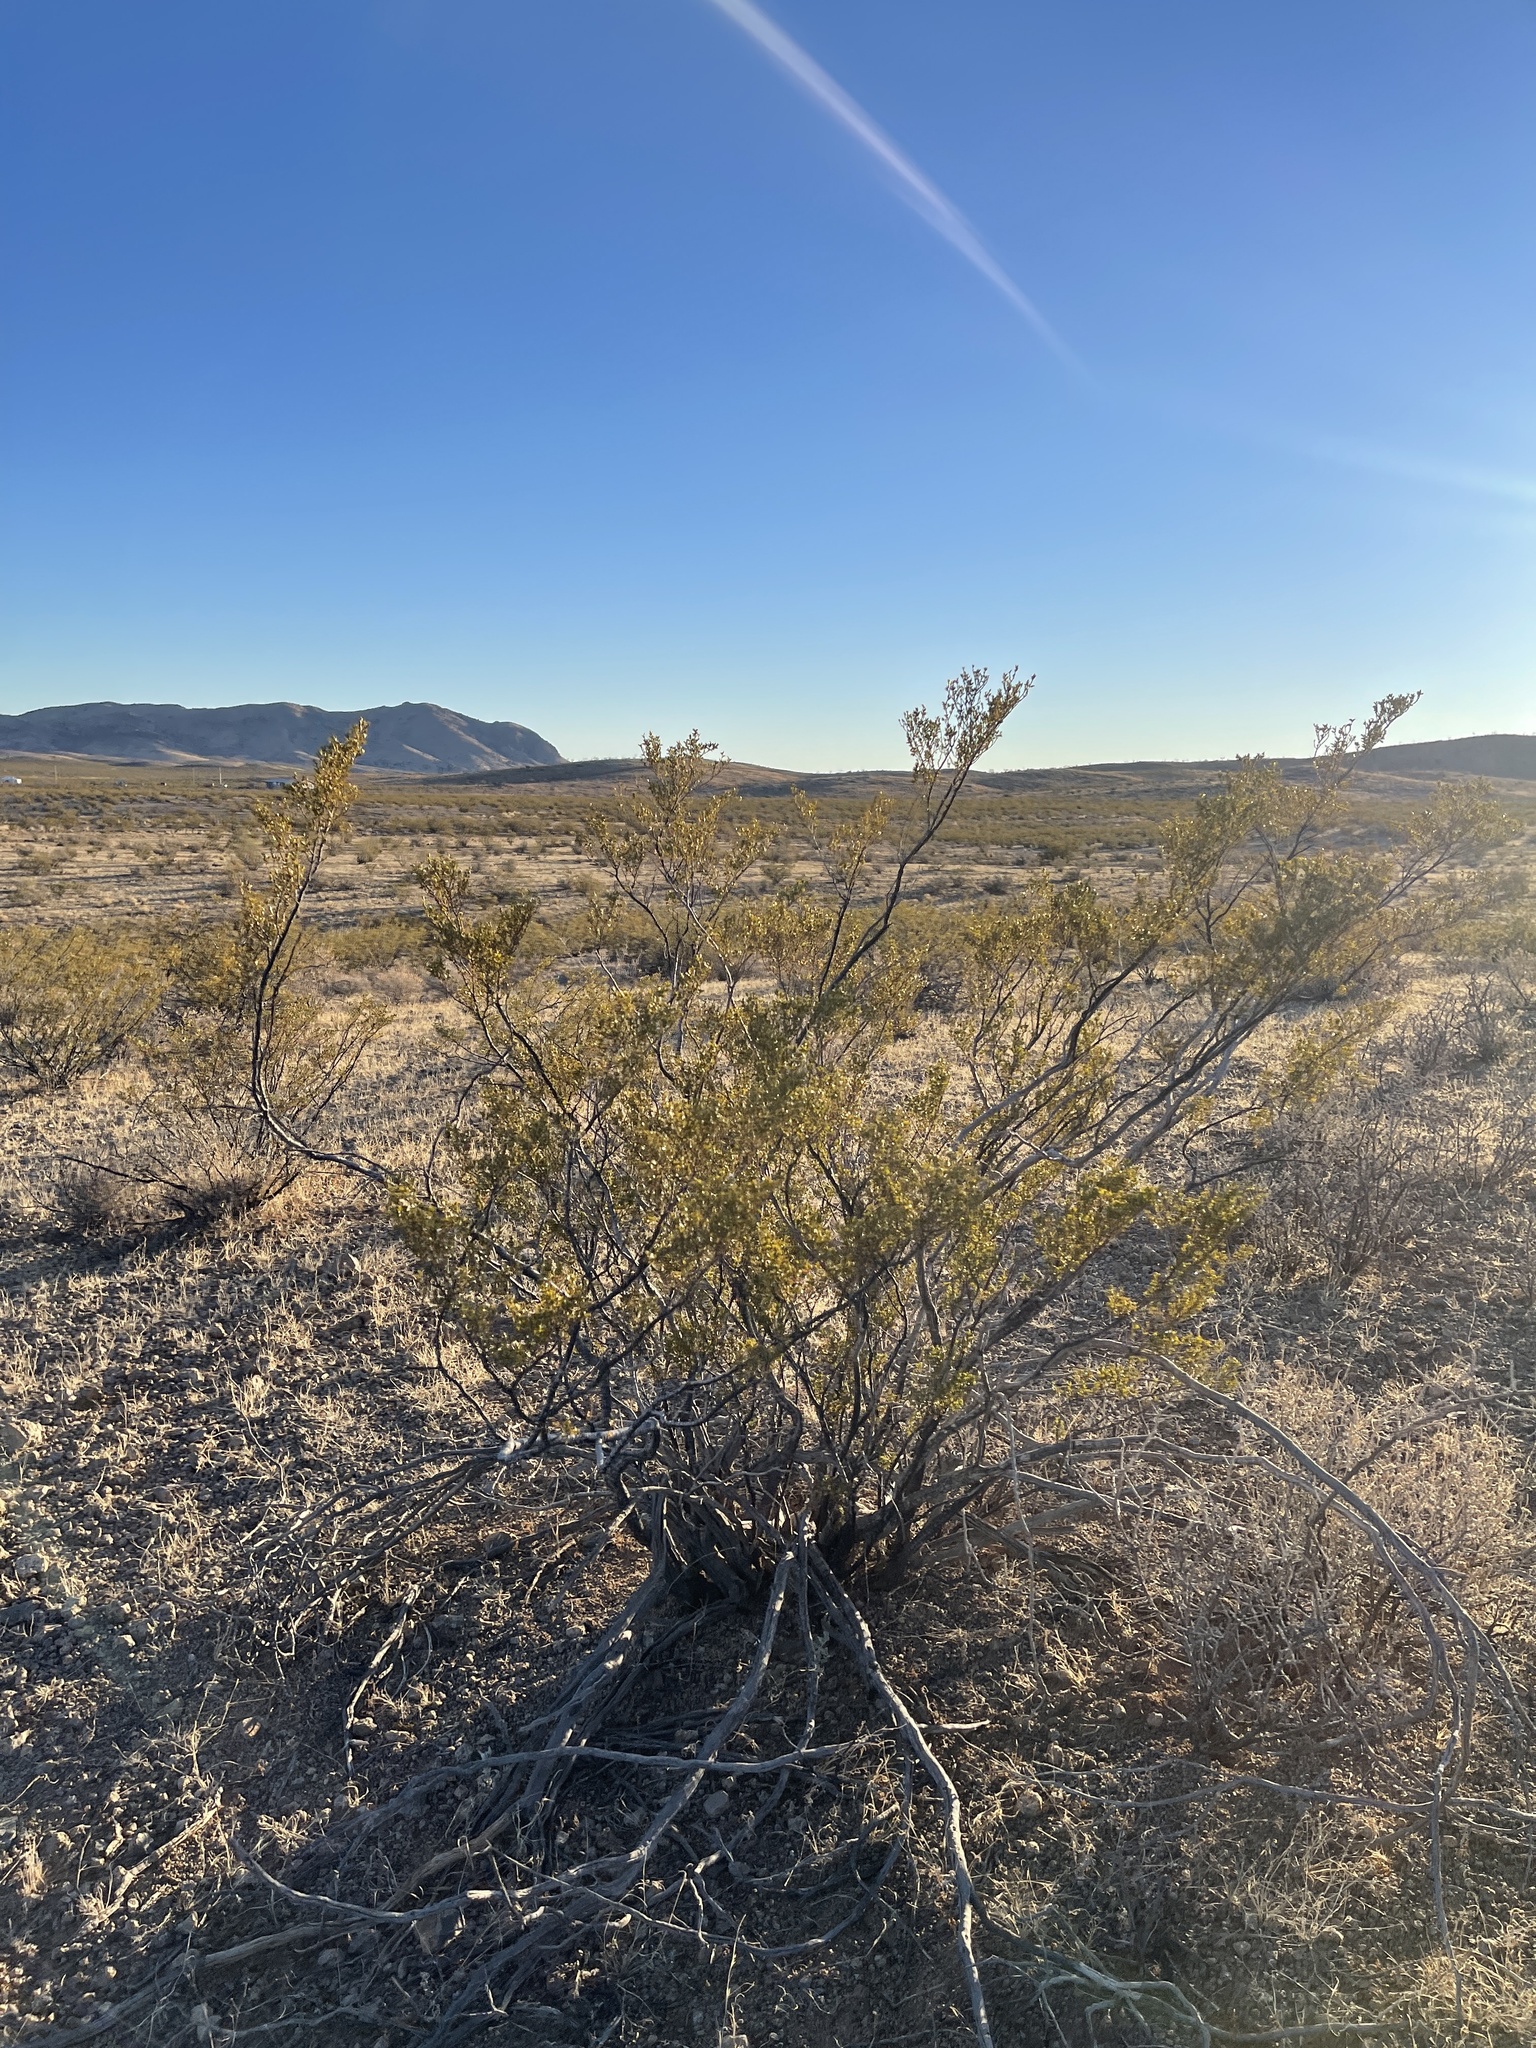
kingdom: Plantae
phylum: Tracheophyta
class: Magnoliopsida
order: Zygophyllales
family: Zygophyllaceae
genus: Larrea
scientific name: Larrea tridentata
